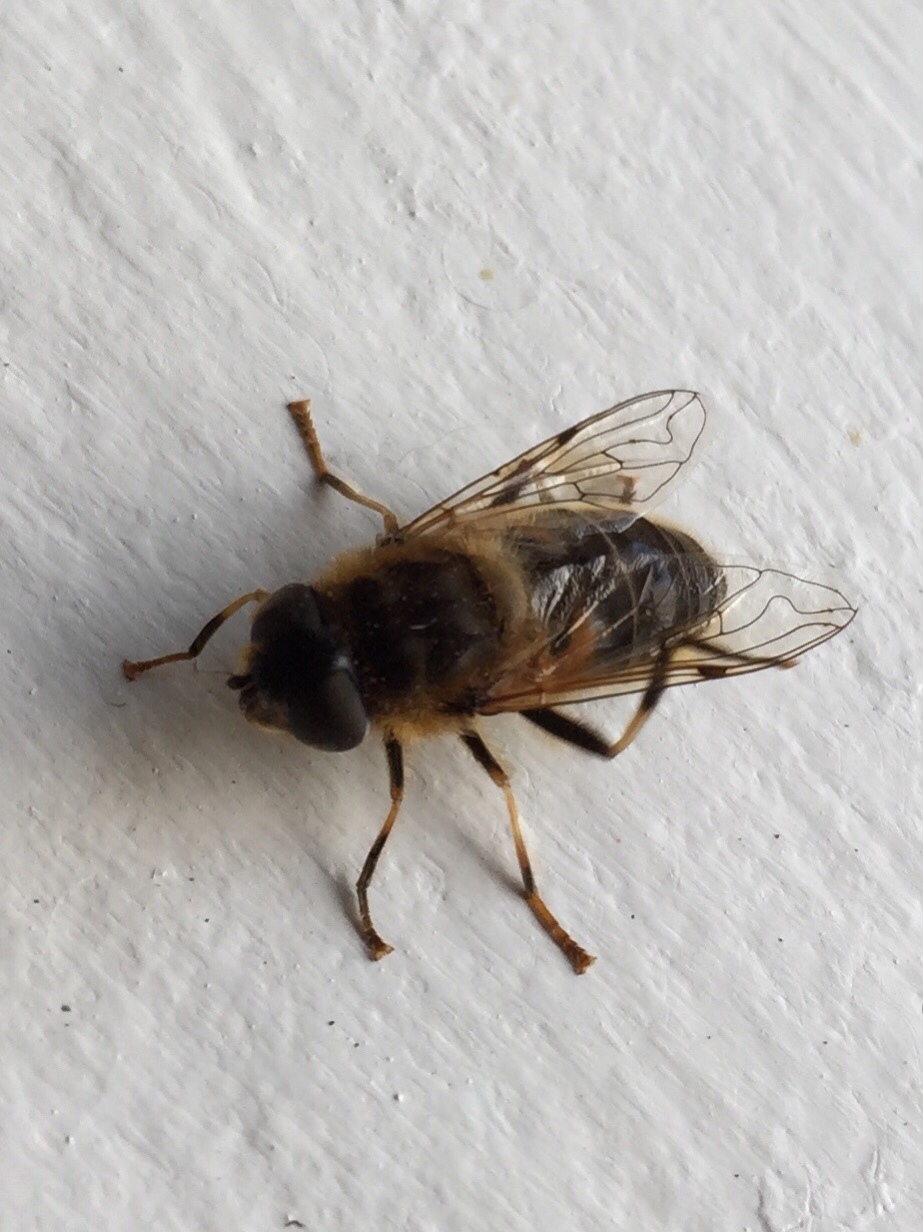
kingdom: Animalia
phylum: Arthropoda
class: Insecta
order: Diptera
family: Syrphidae
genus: Eristalis
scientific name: Eristalis pertinax
